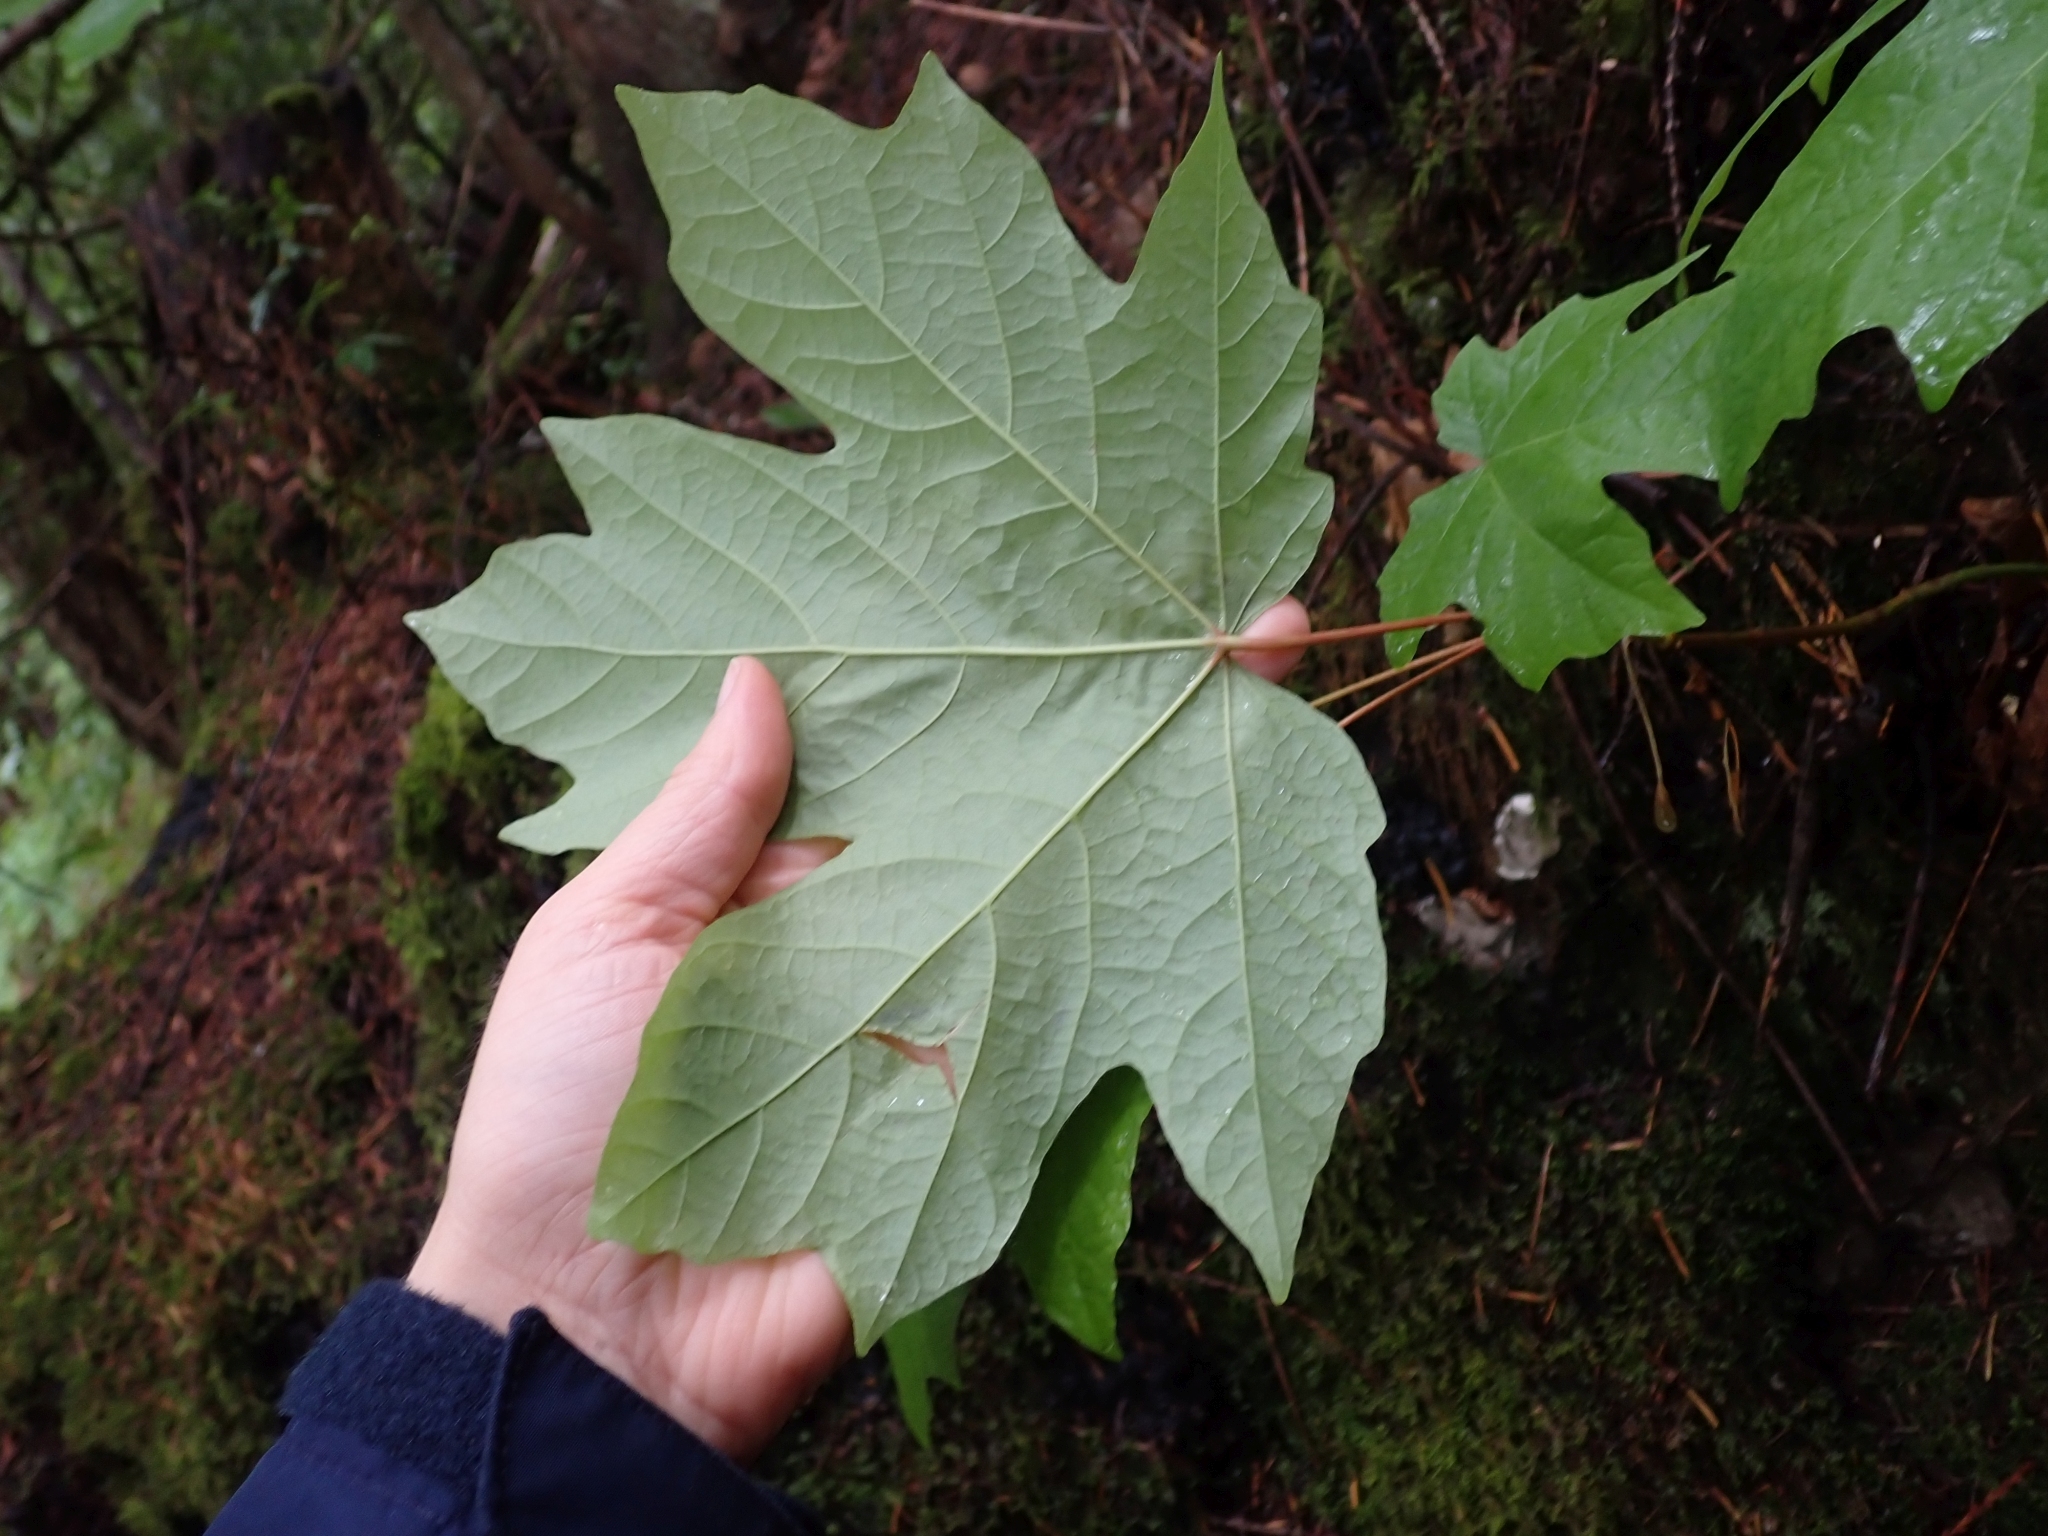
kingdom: Plantae
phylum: Tracheophyta
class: Magnoliopsida
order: Sapindales
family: Sapindaceae
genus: Acer
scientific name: Acer macrophyllum
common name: Oregon maple
